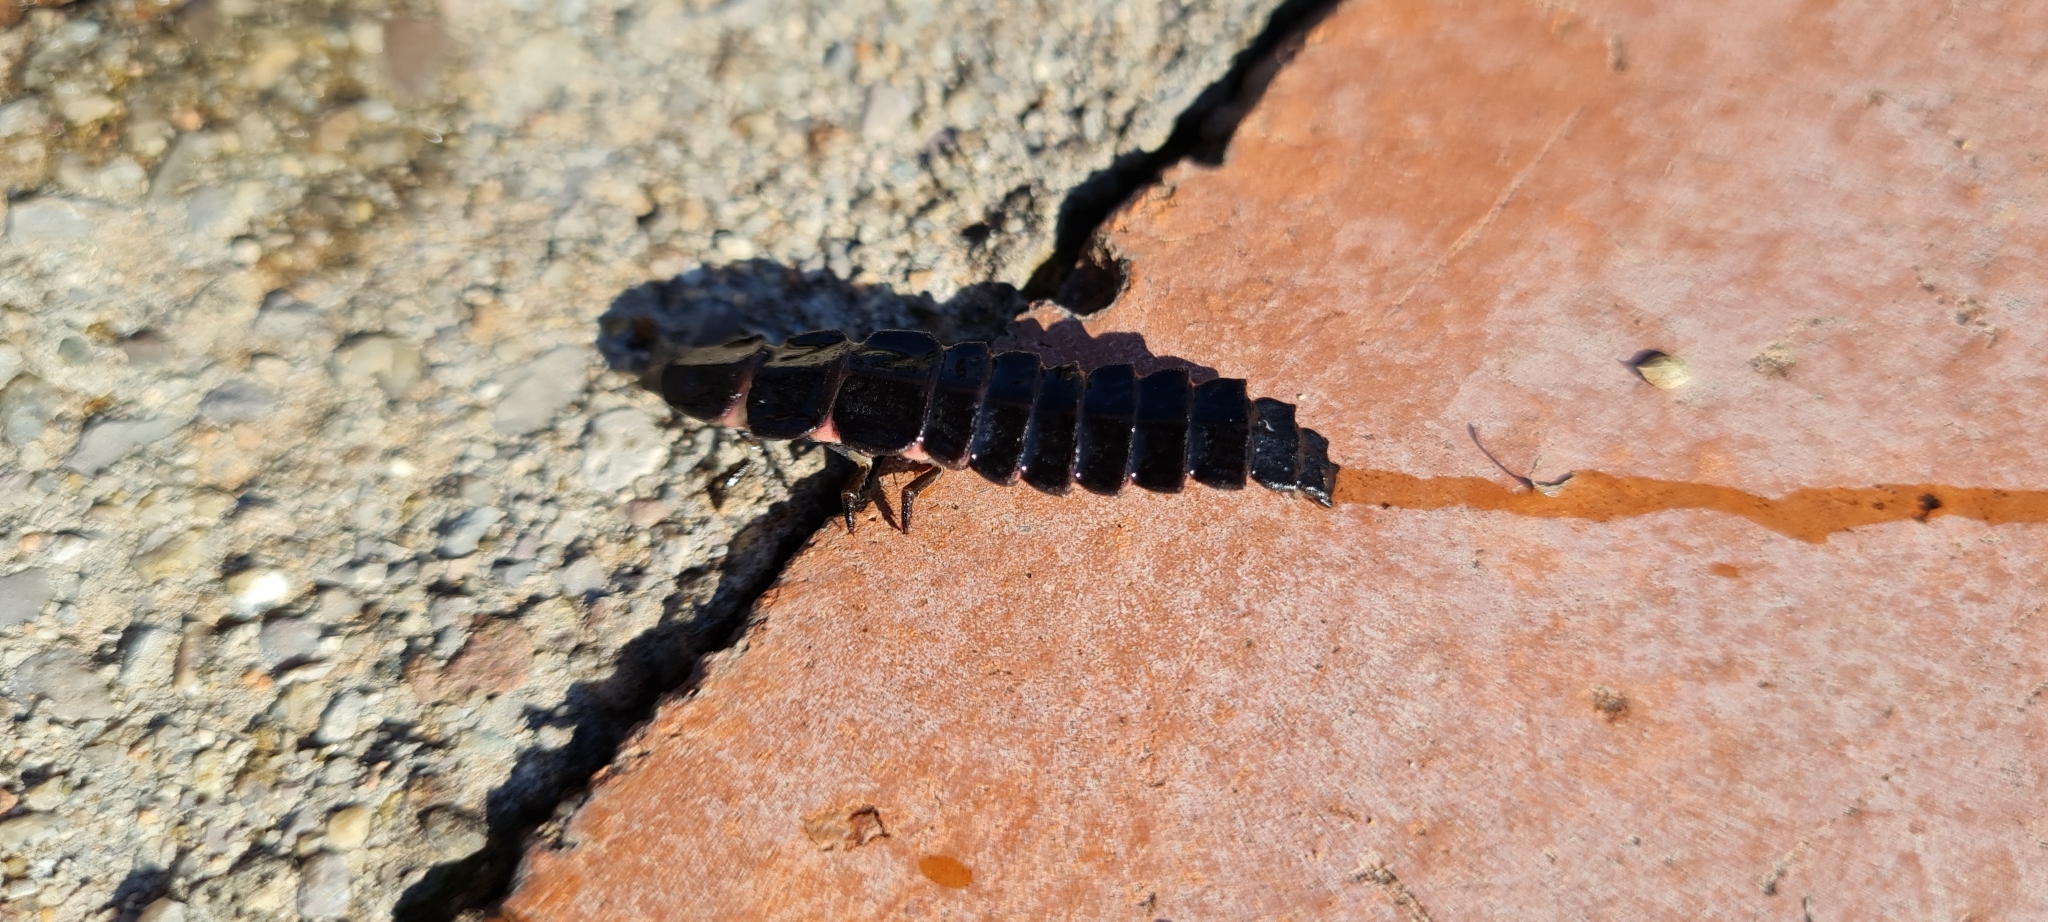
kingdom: Animalia
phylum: Arthropoda
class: Insecta
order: Coleoptera
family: Lampyridae
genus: Nyctophila
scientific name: Nyctophila reichii
